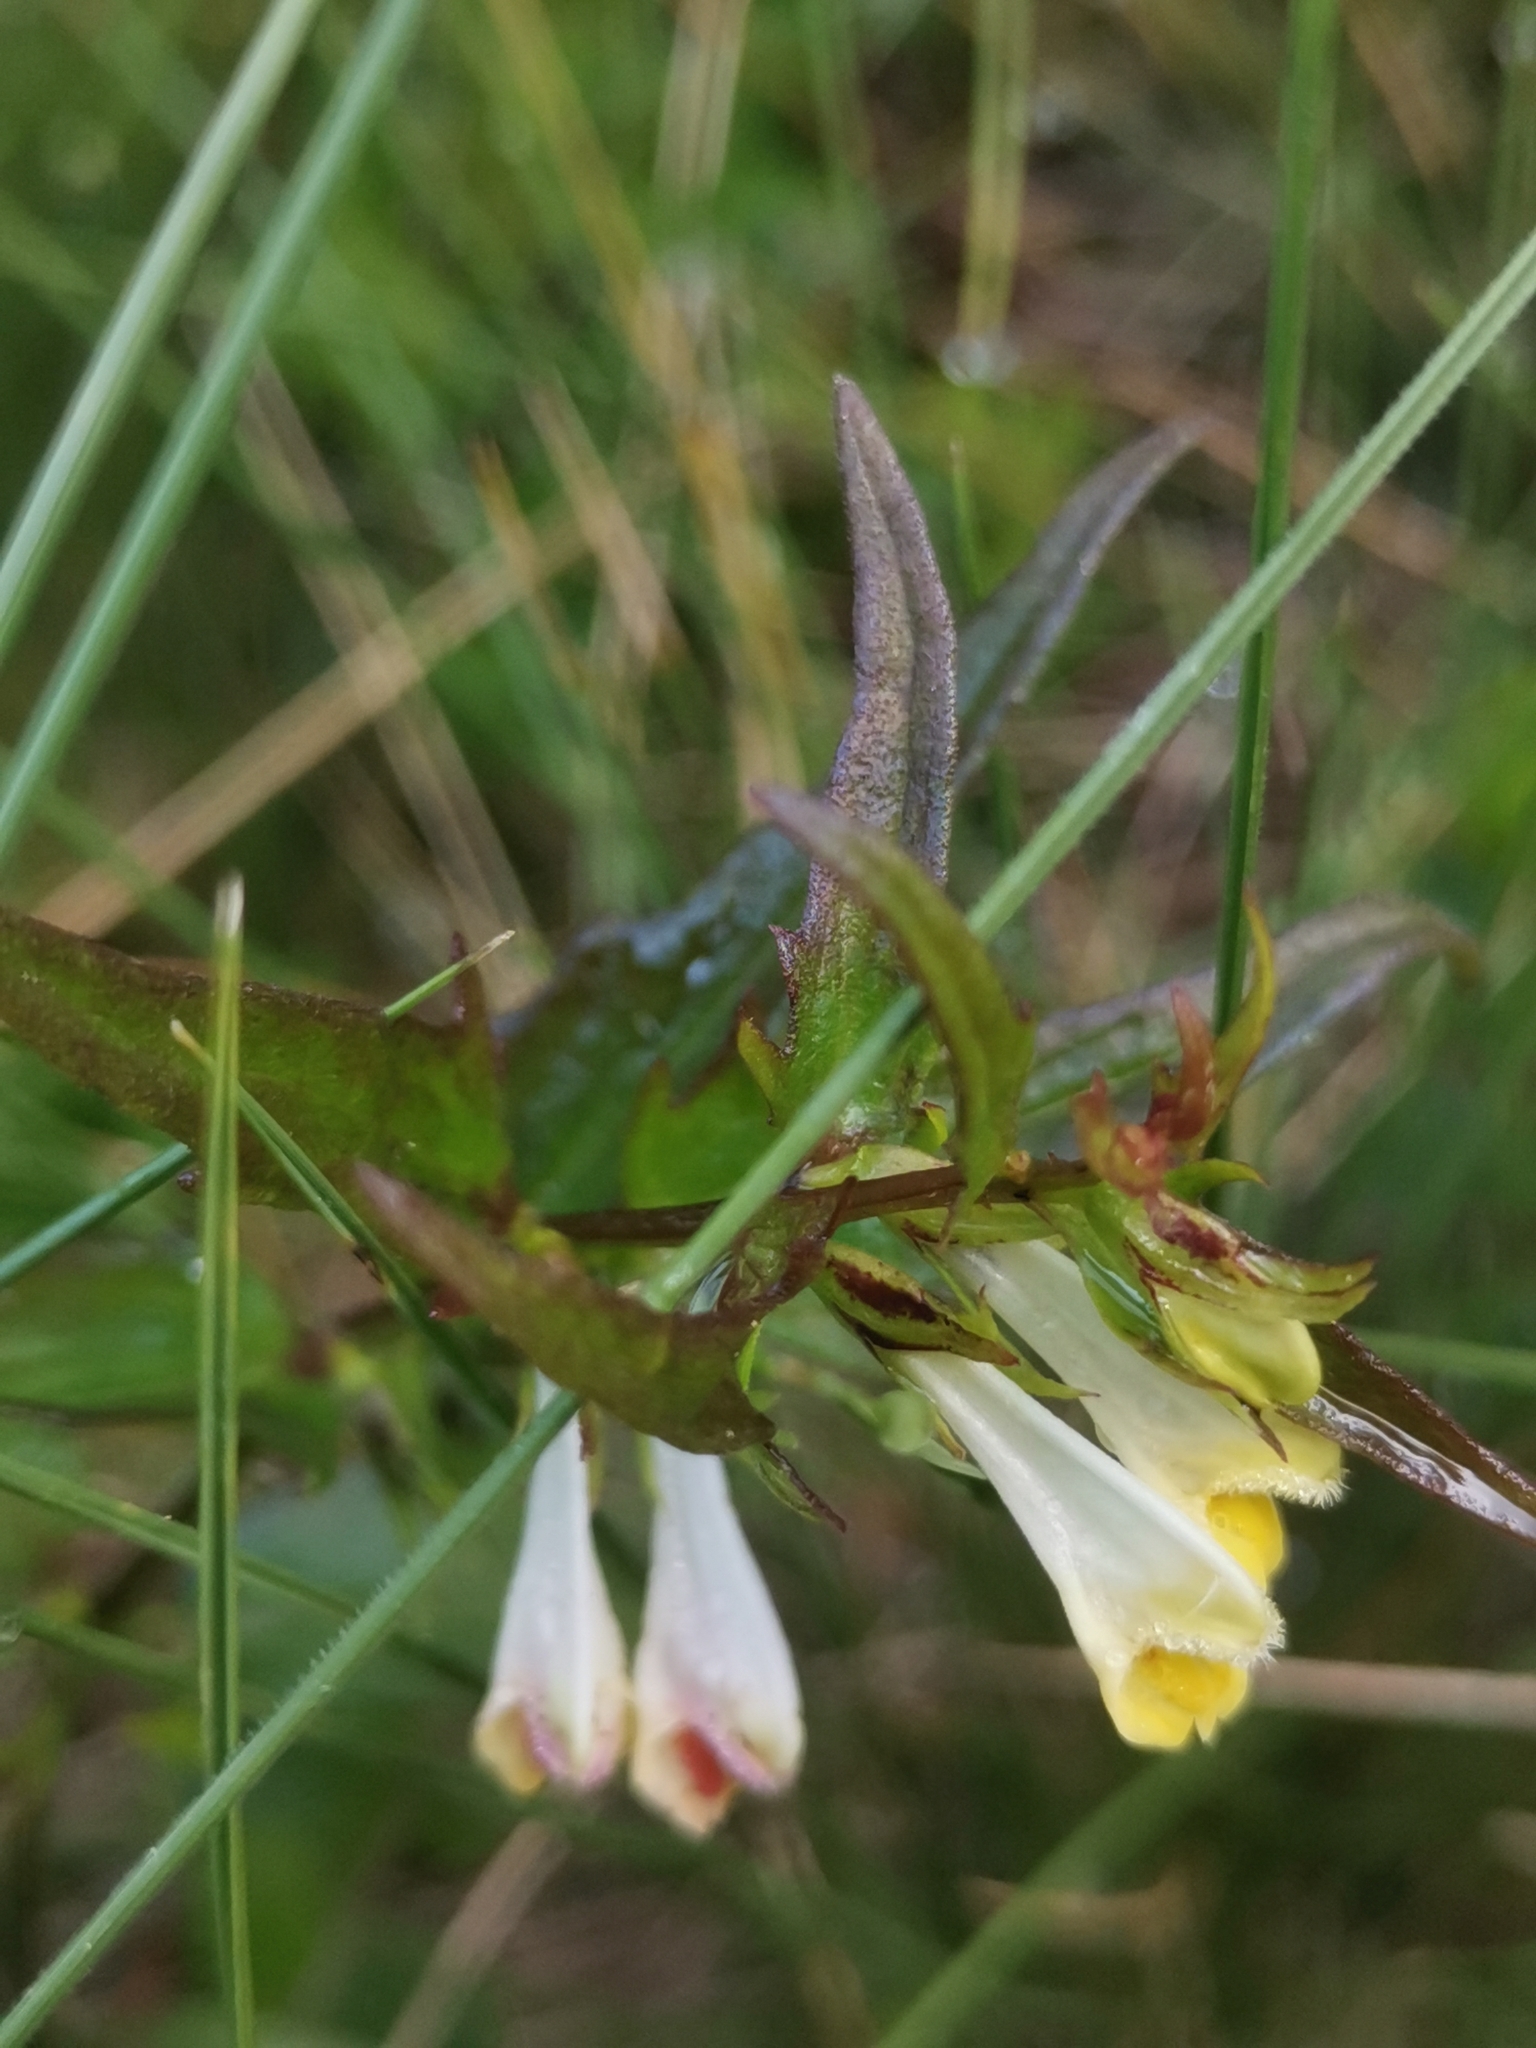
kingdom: Plantae
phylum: Tracheophyta
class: Magnoliopsida
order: Lamiales
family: Orobanchaceae
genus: Melampyrum
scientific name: Melampyrum pratense
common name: Common cow-wheat
